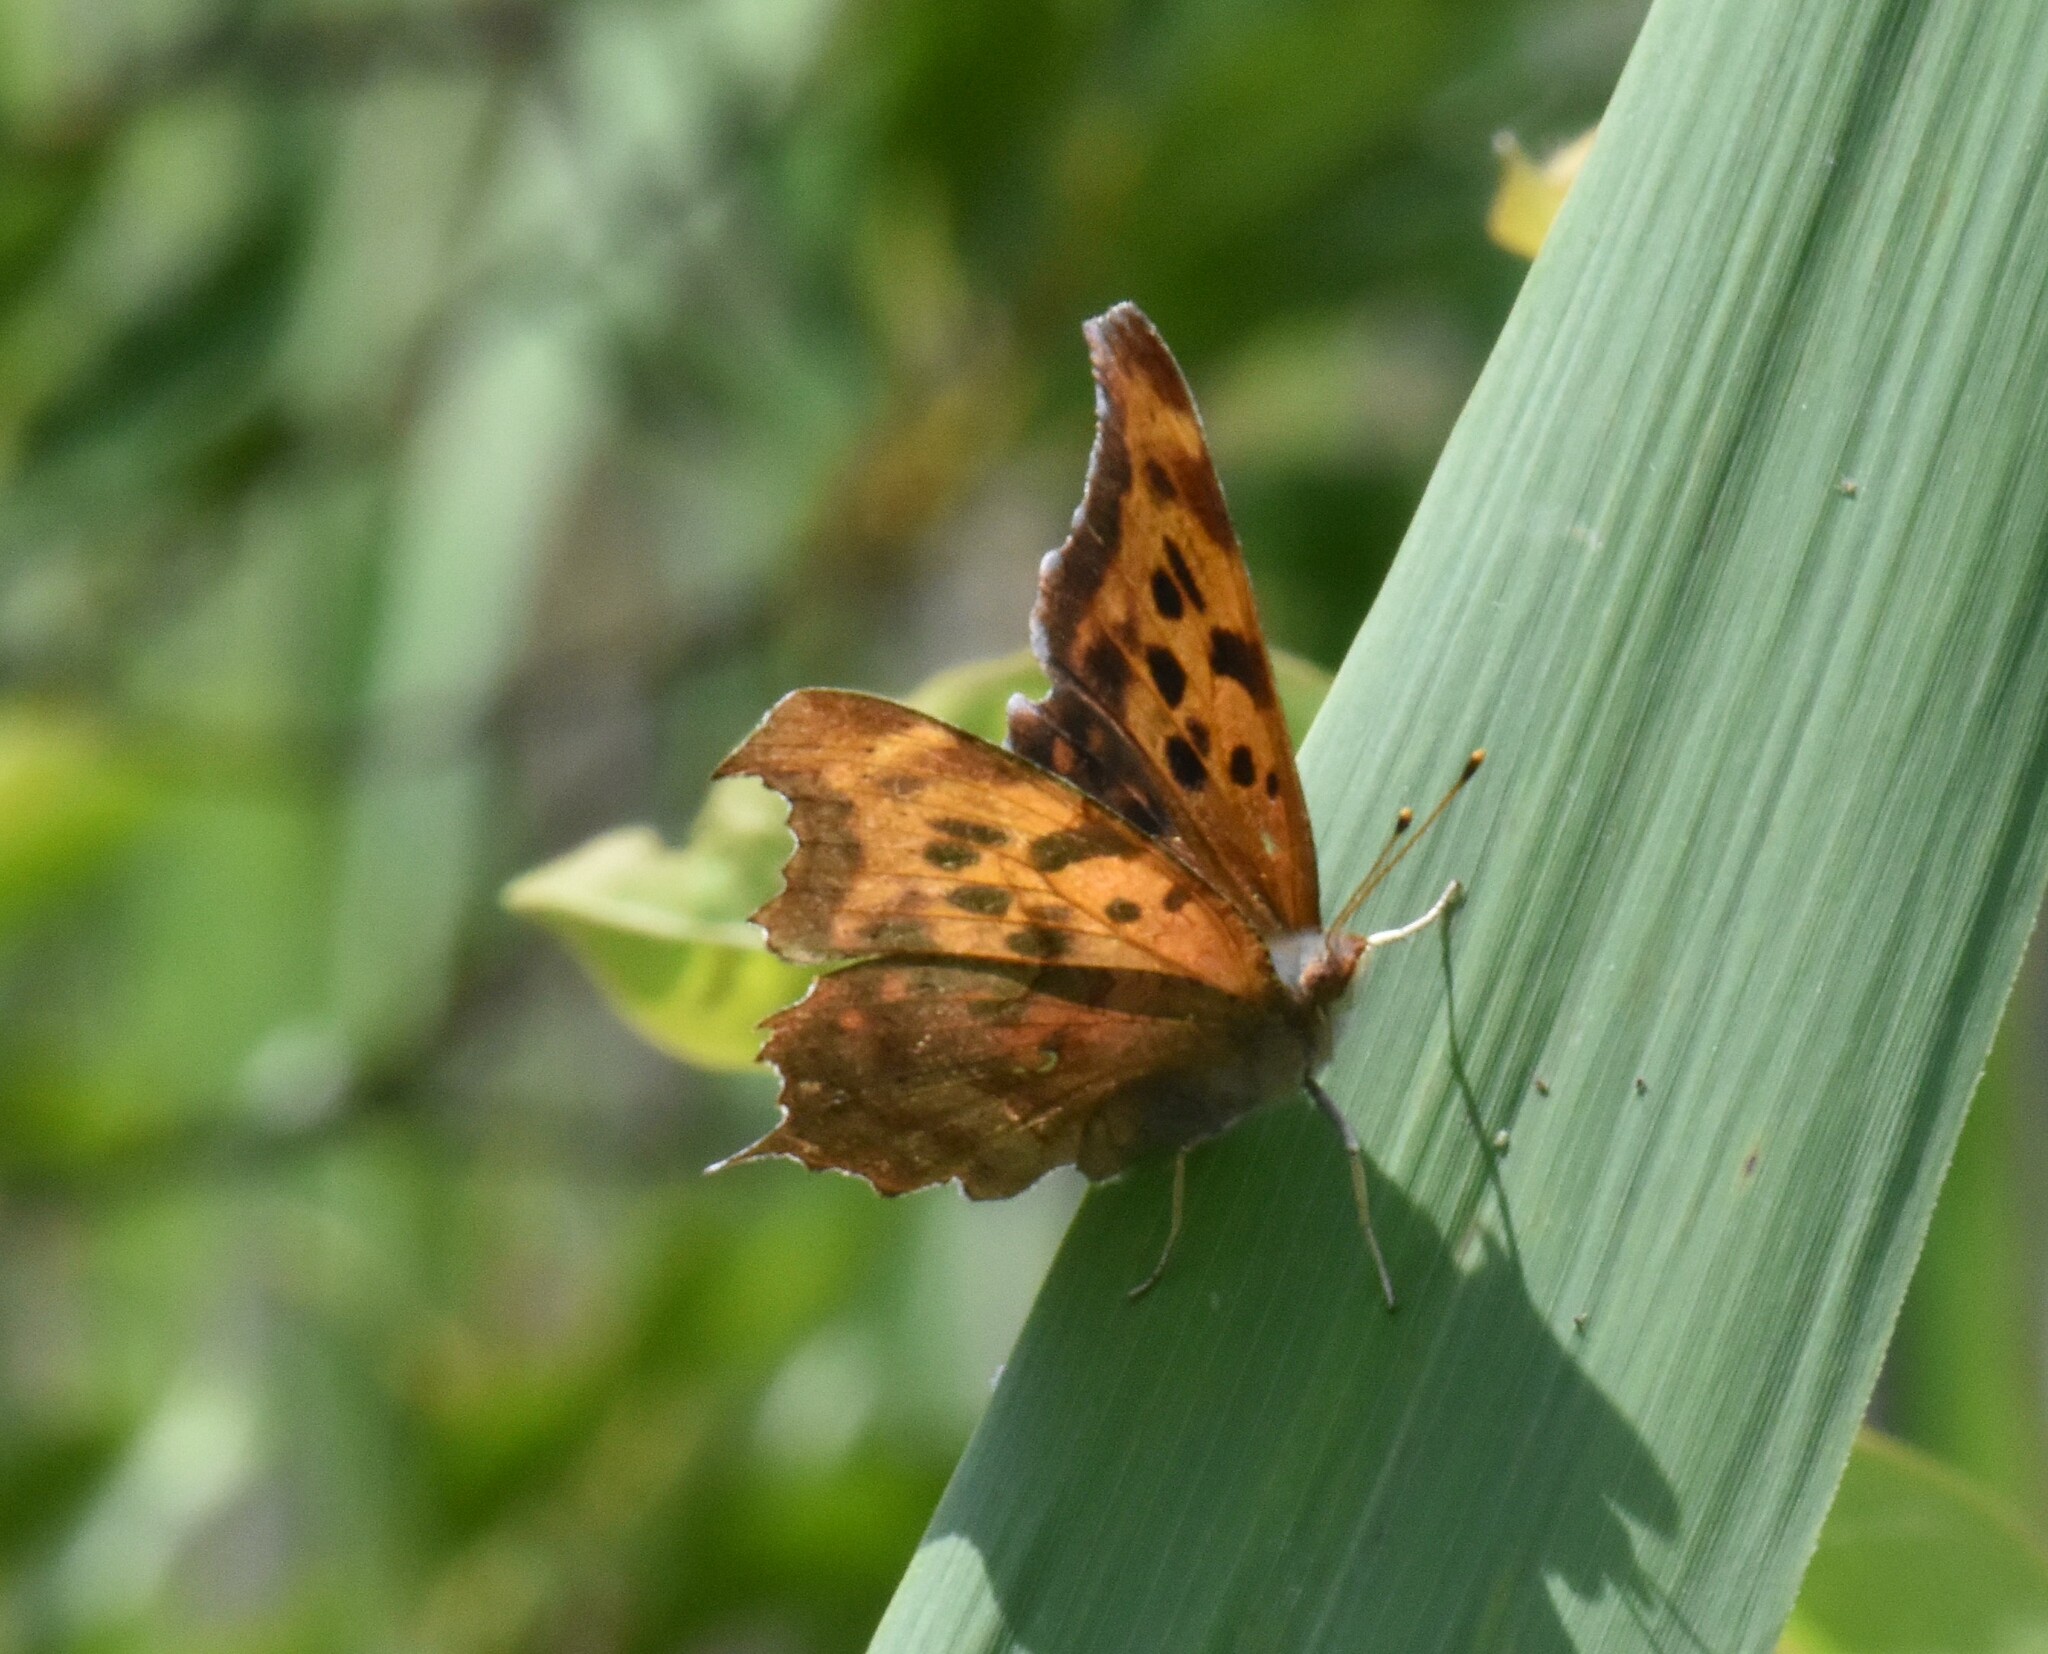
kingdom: Animalia
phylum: Arthropoda
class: Insecta
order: Lepidoptera
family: Nymphalidae
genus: Polygonia
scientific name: Polygonia interrogationis
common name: Question mark
